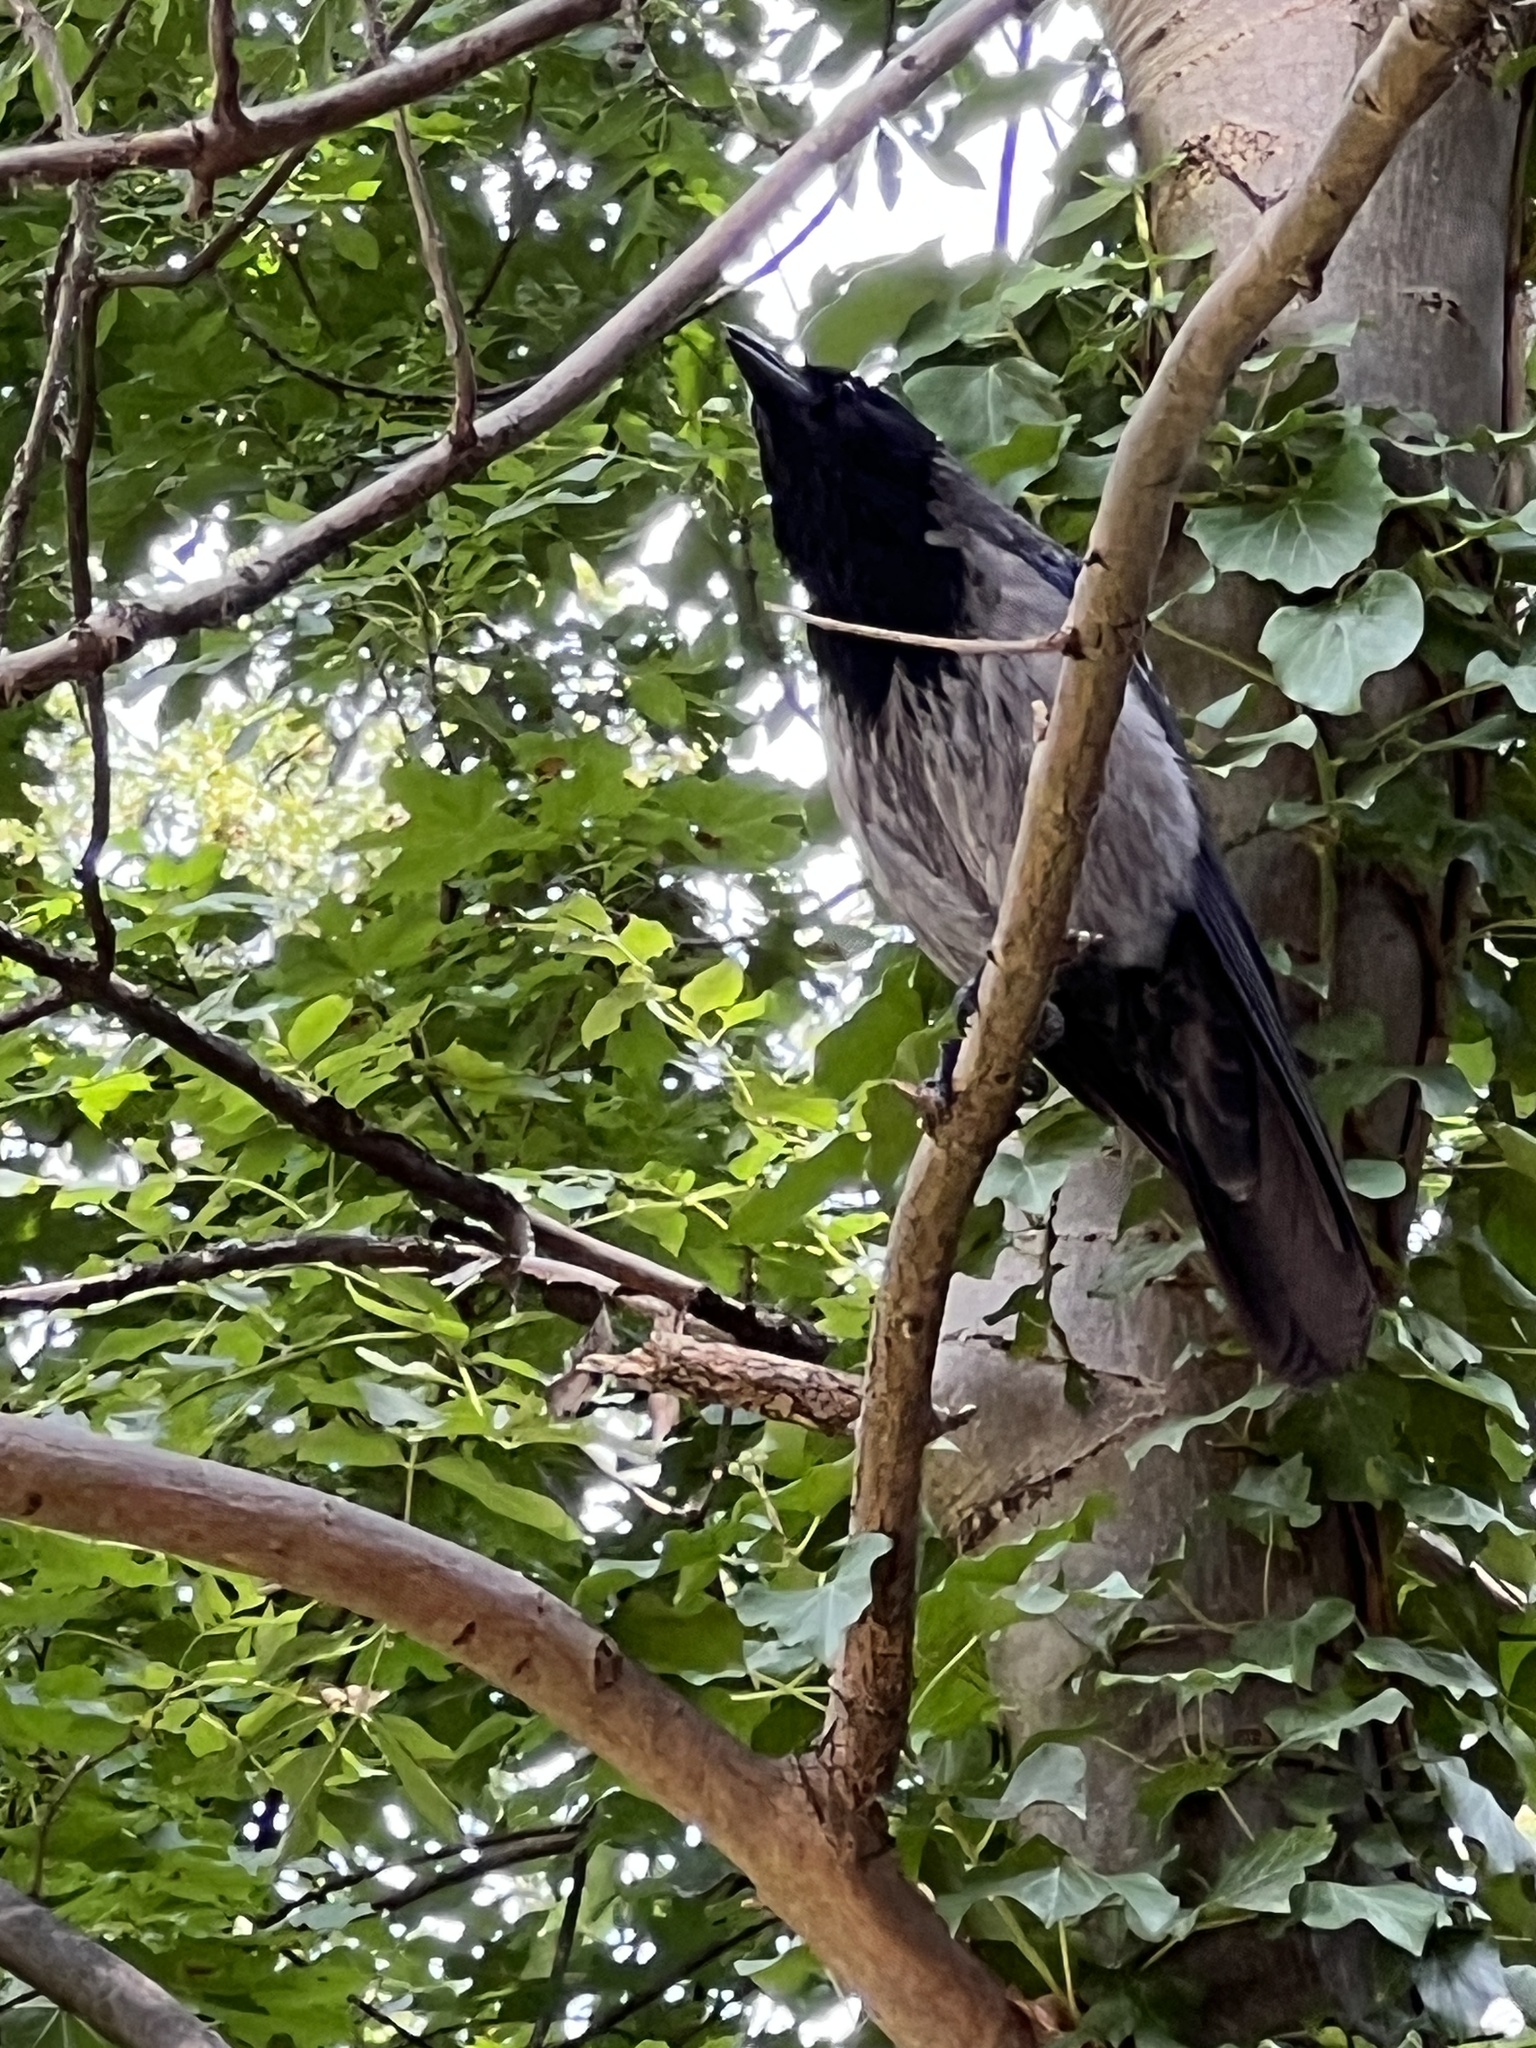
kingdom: Animalia
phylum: Chordata
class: Aves
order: Passeriformes
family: Corvidae
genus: Corvus
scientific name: Corvus
